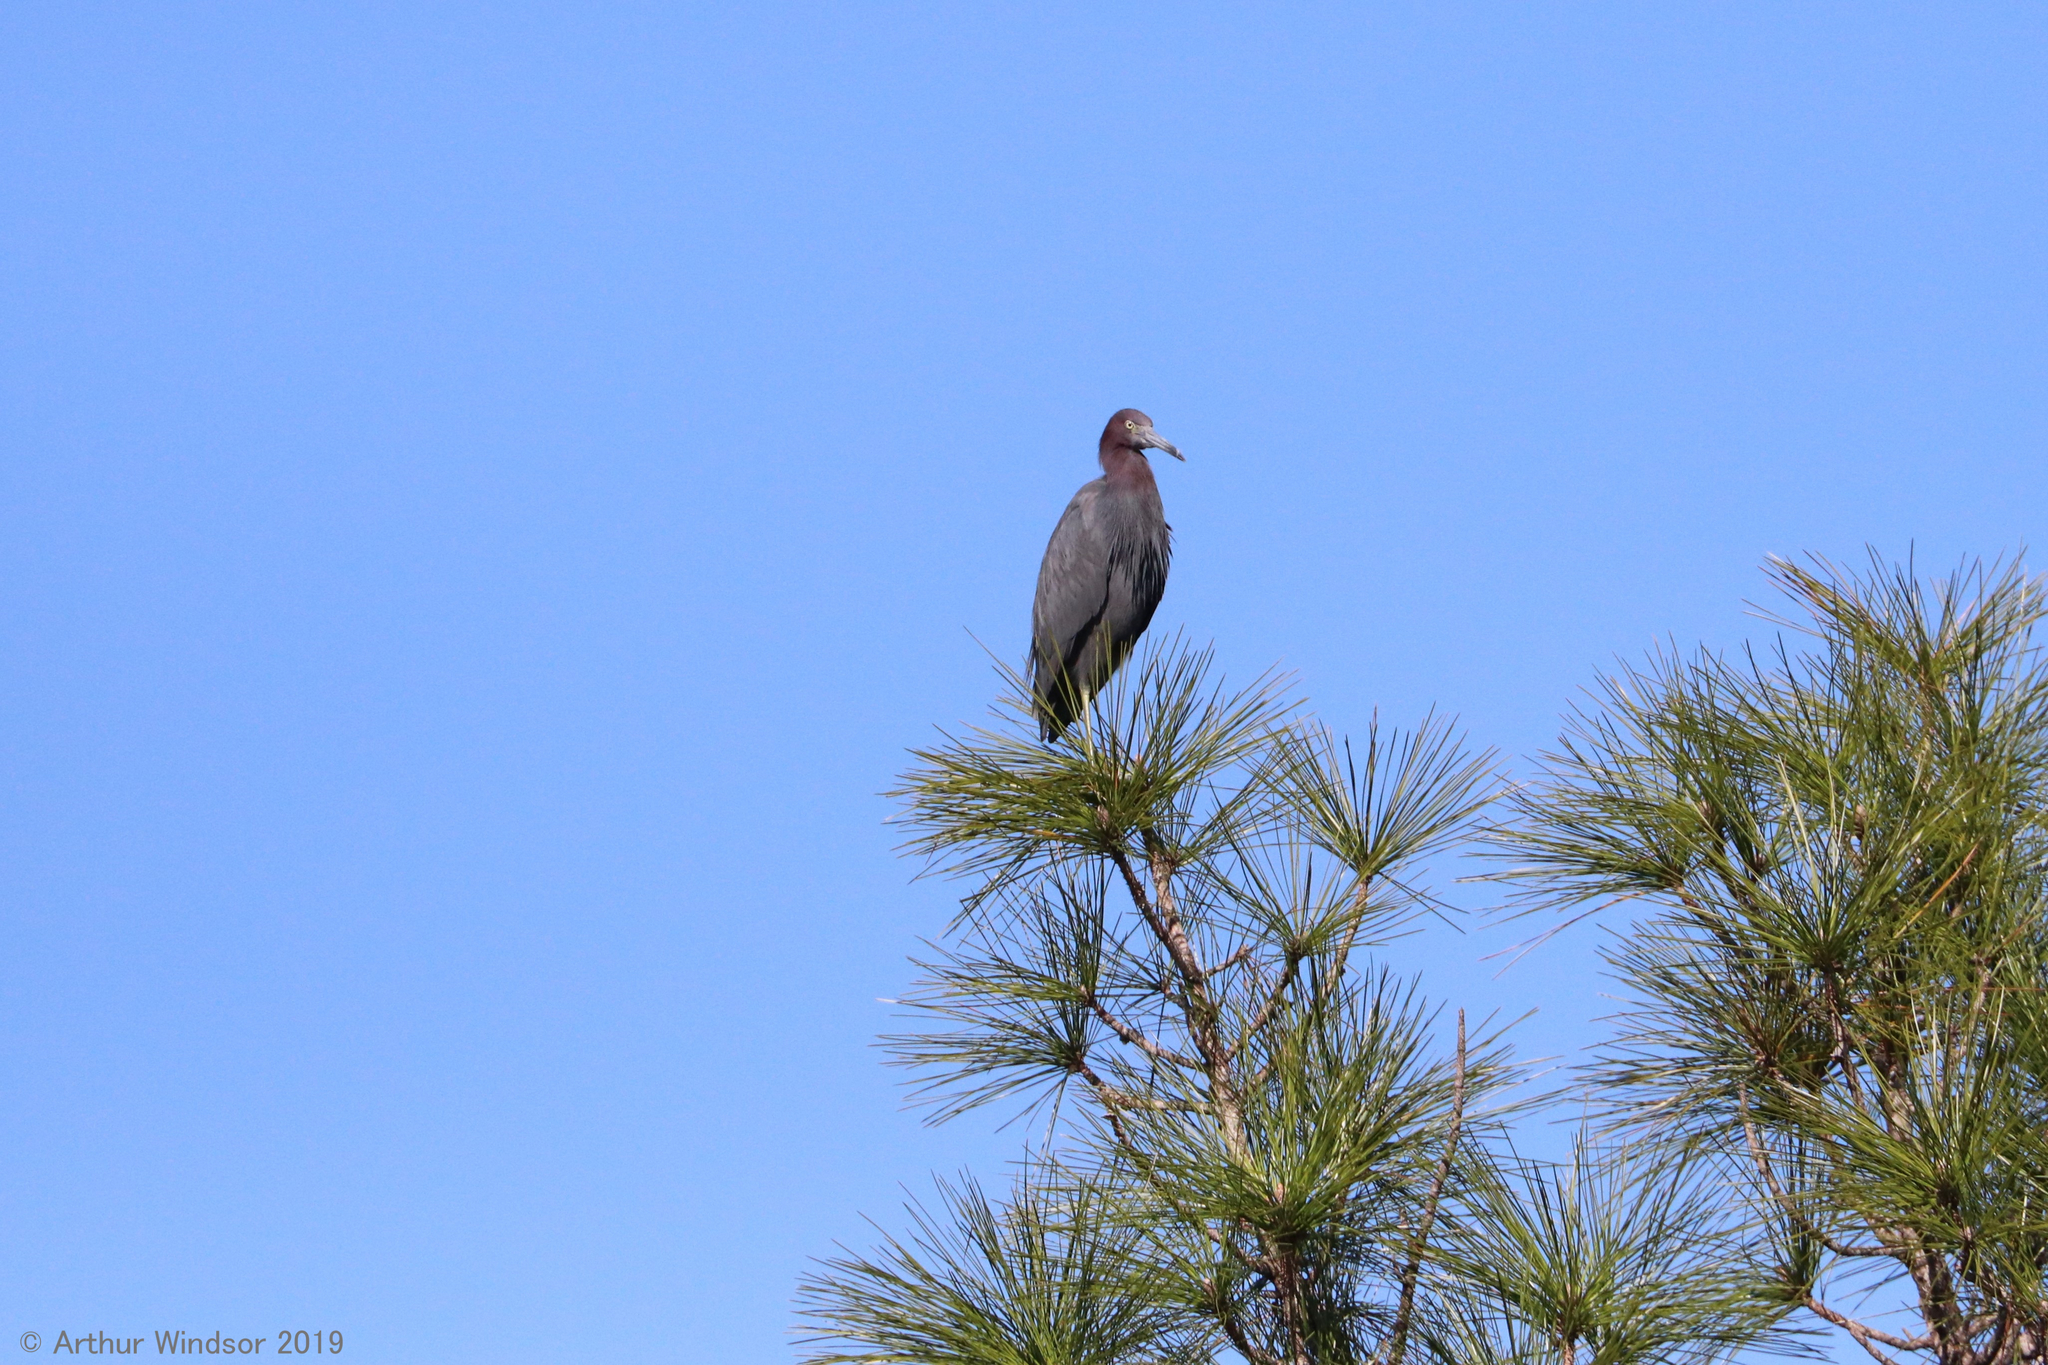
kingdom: Animalia
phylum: Chordata
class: Aves
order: Pelecaniformes
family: Ardeidae
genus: Egretta
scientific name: Egretta caerulea
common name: Little blue heron
